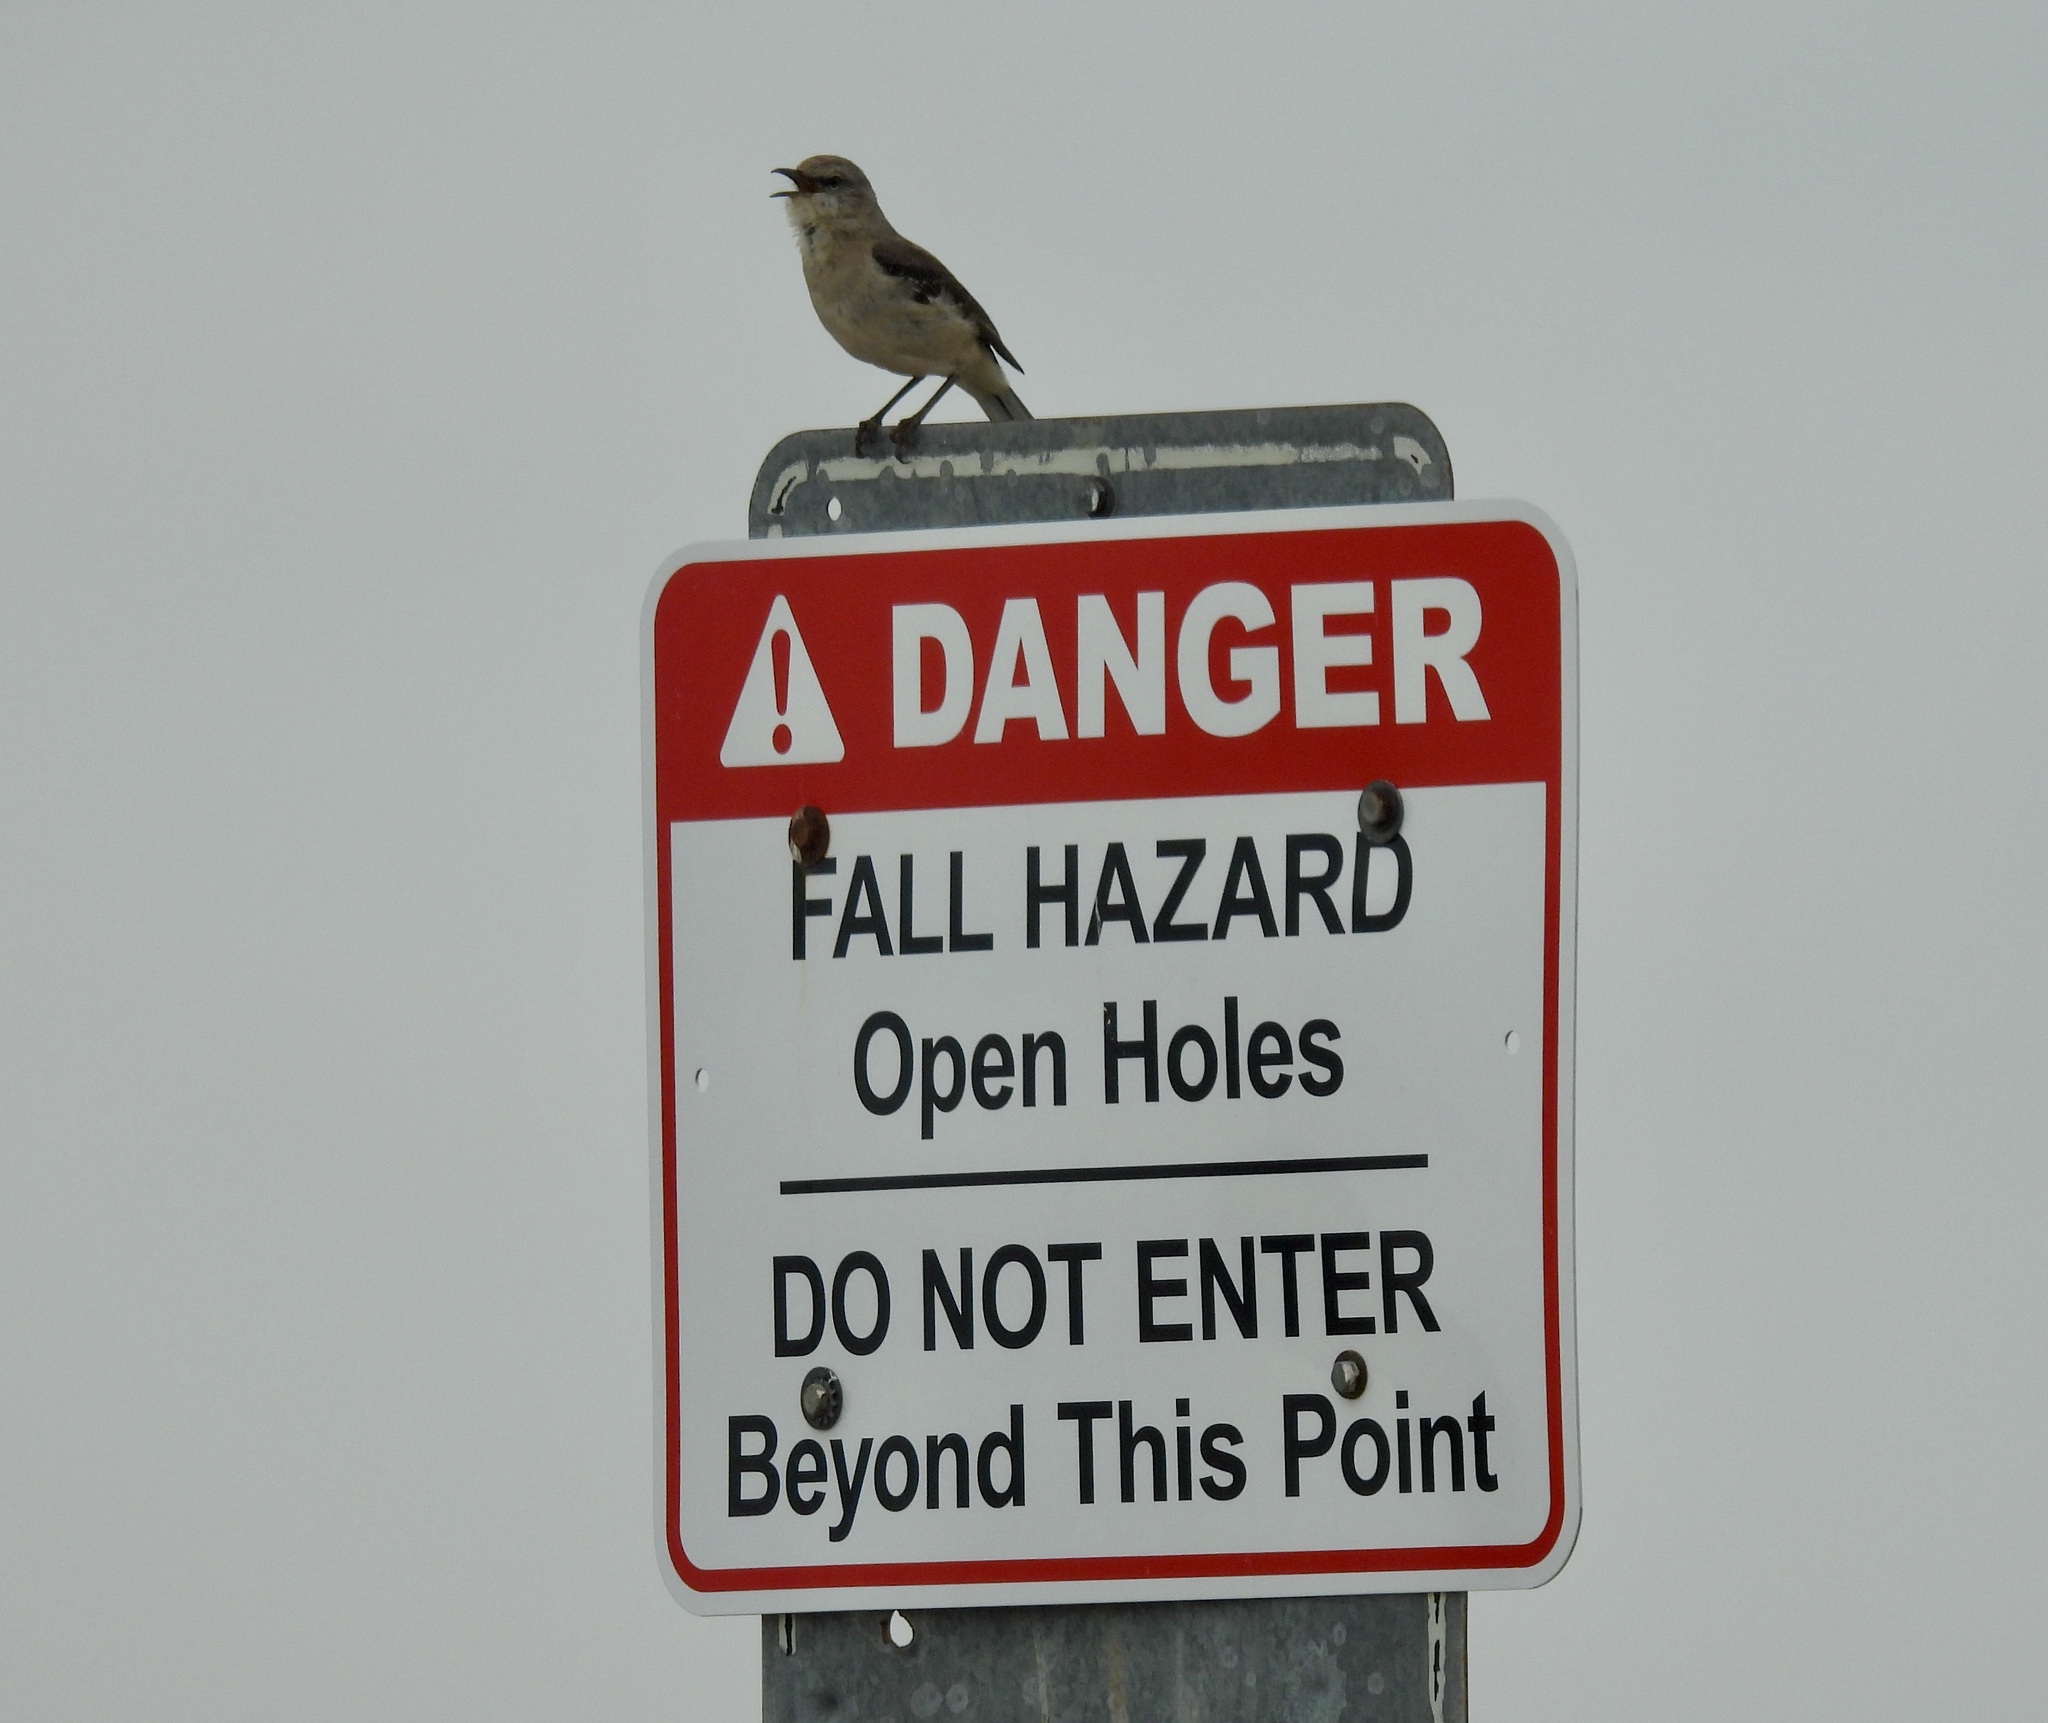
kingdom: Animalia
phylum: Chordata
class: Aves
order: Passeriformes
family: Mimidae
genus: Mimus
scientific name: Mimus polyglottos
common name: Northern mockingbird
